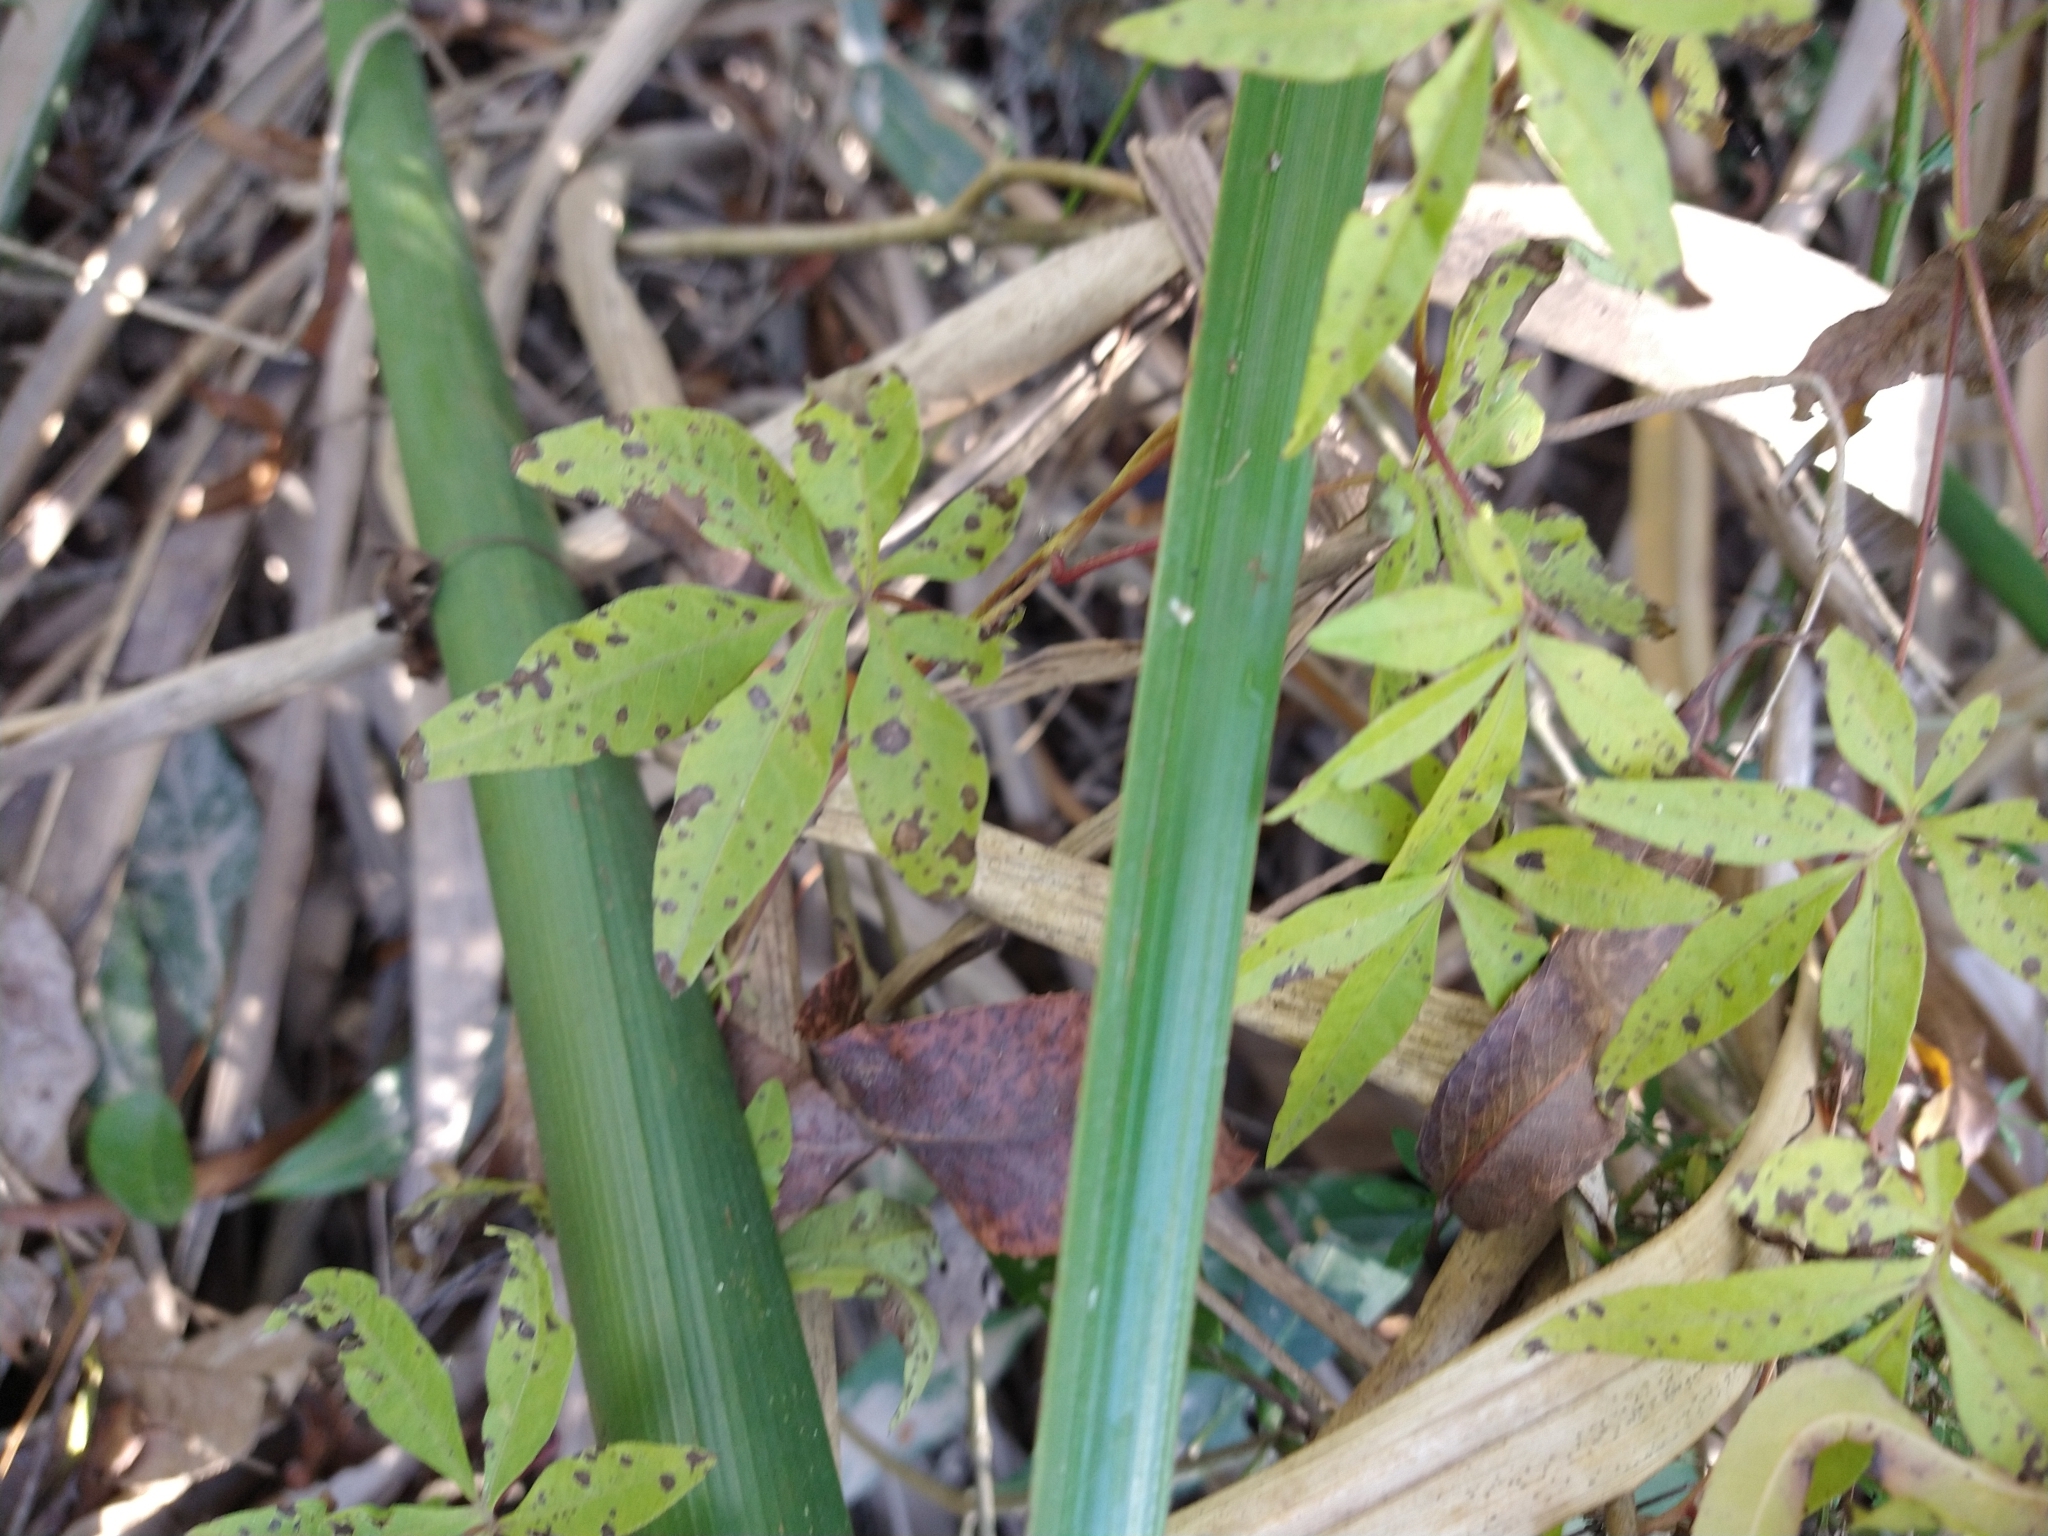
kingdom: Plantae
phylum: Tracheophyta
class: Magnoliopsida
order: Solanales
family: Convolvulaceae
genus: Ipomoea
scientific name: Ipomoea cairica
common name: Mile a minute vine
